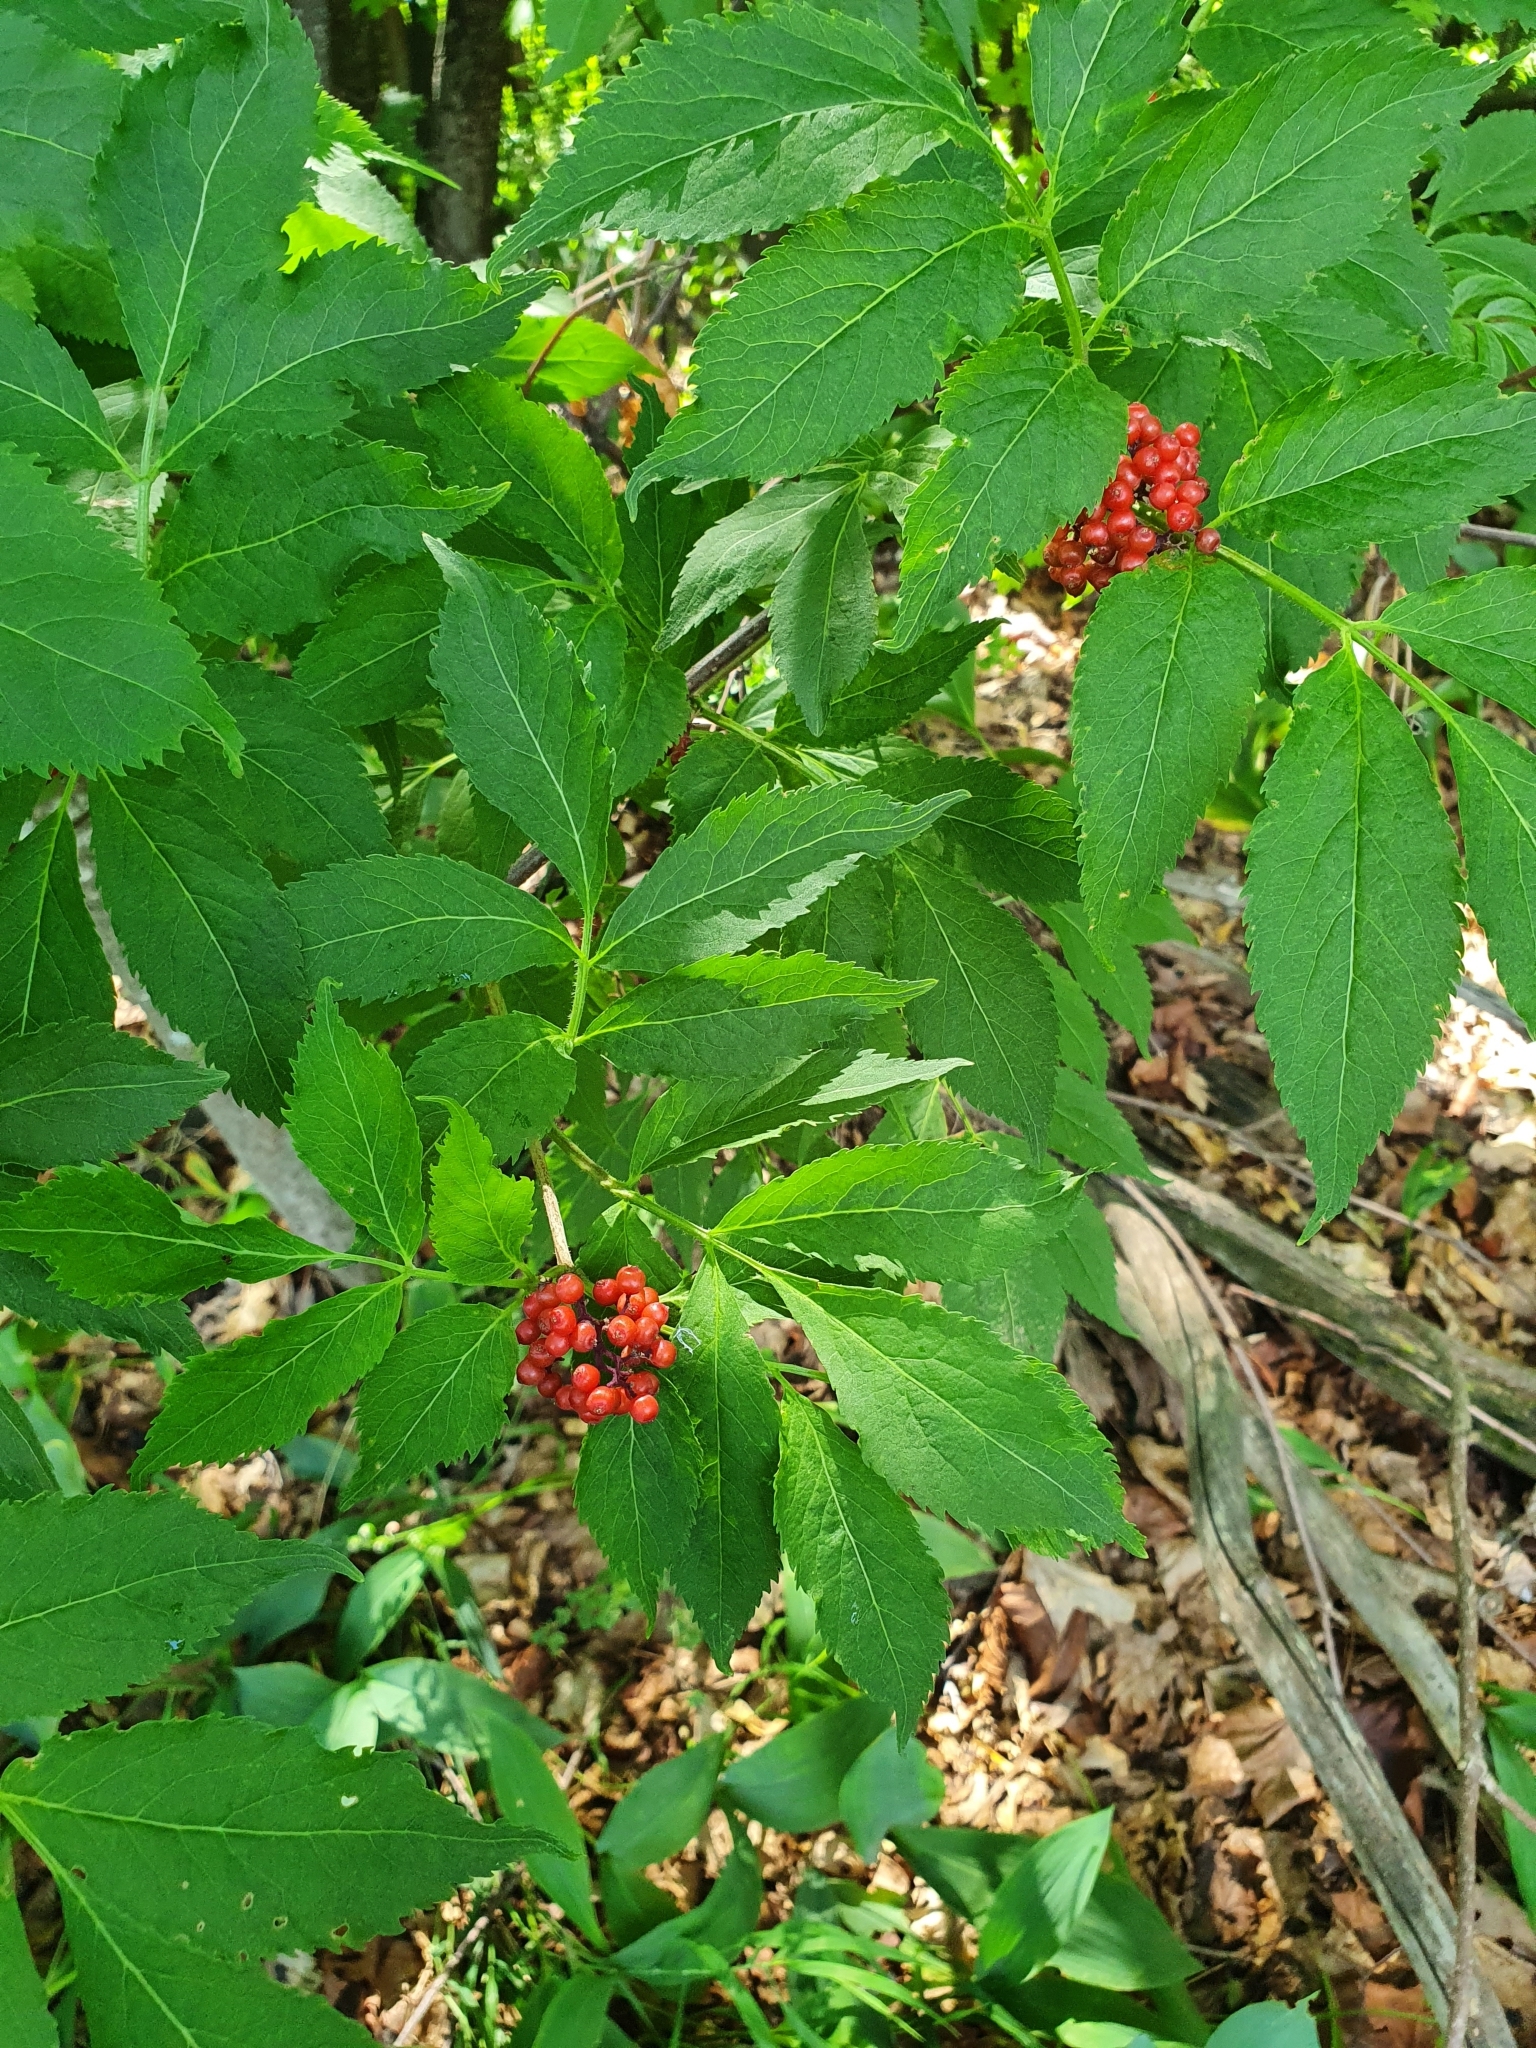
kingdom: Plantae
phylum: Tracheophyta
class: Magnoliopsida
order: Dipsacales
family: Viburnaceae
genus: Sambucus
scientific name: Sambucus sibirica
